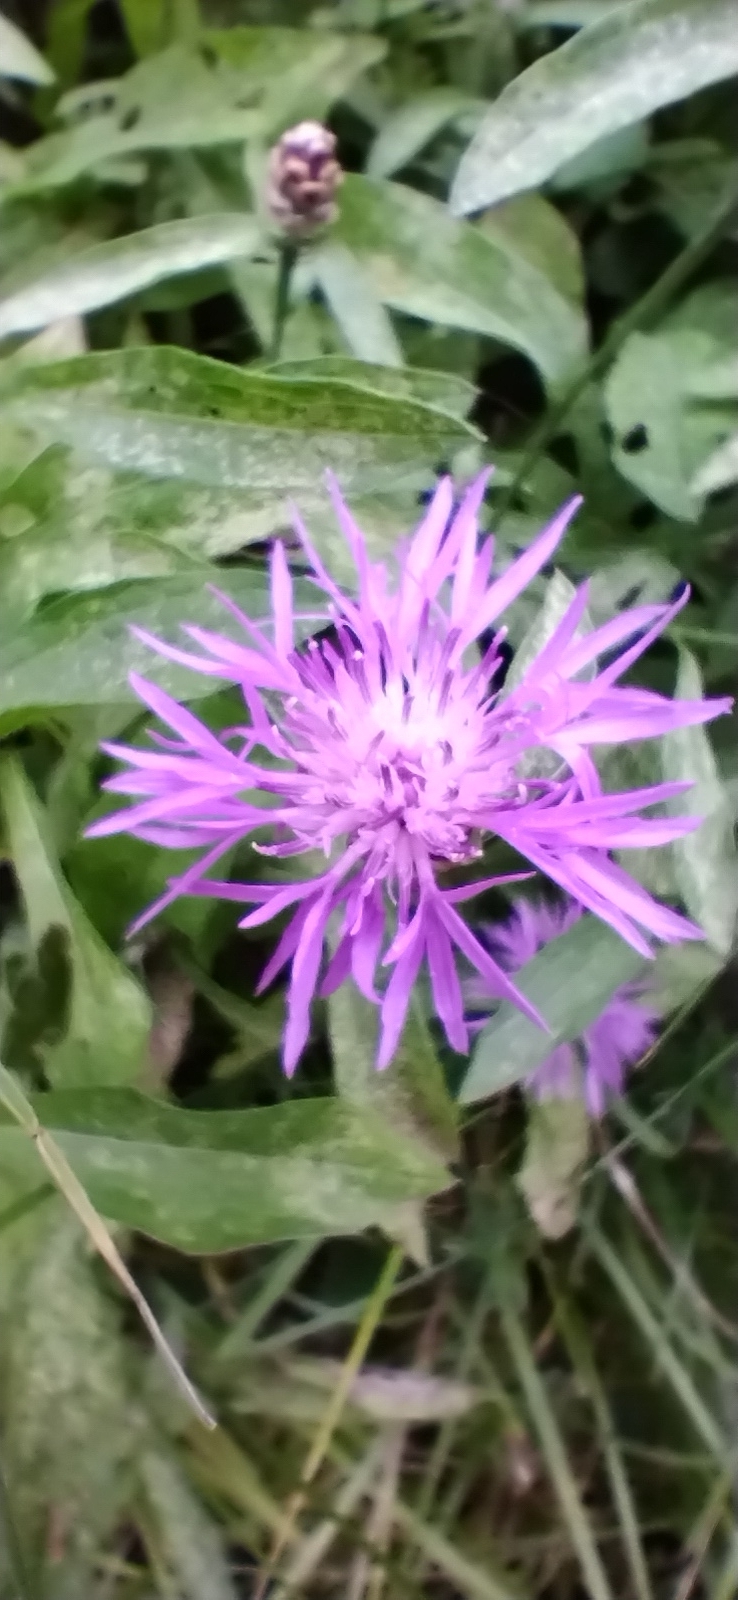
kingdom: Plantae
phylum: Tracheophyta
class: Magnoliopsida
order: Asterales
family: Asteraceae
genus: Centaurea
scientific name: Centaurea jacea
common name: Brown knapweed
